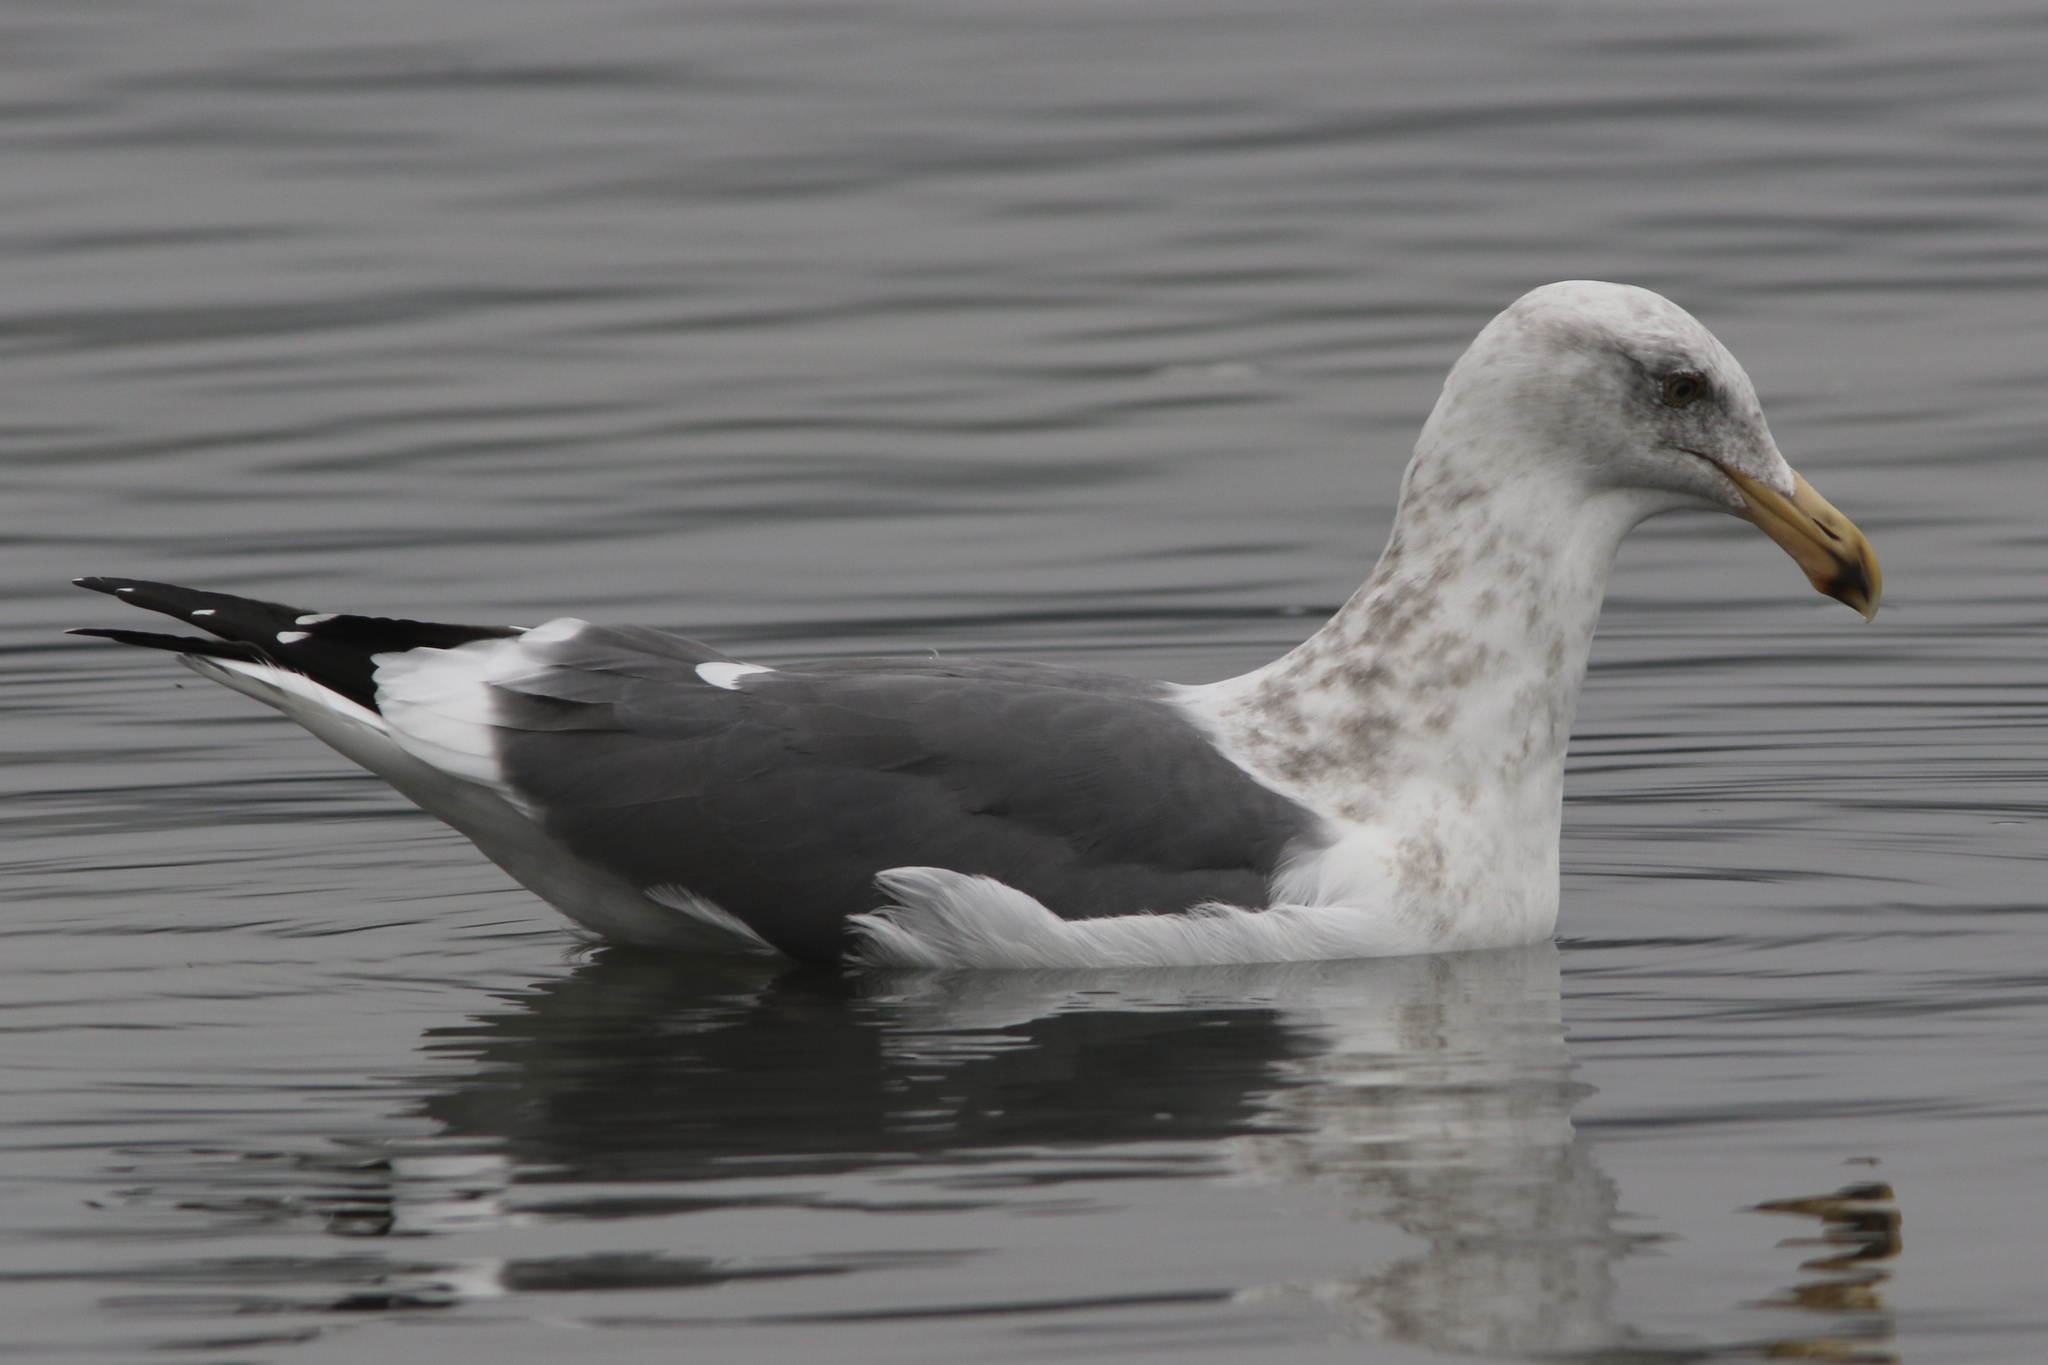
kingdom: Animalia
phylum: Chordata
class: Aves
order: Charadriiformes
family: Laridae
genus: Larus
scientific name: Larus occidentalis
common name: Western gull
